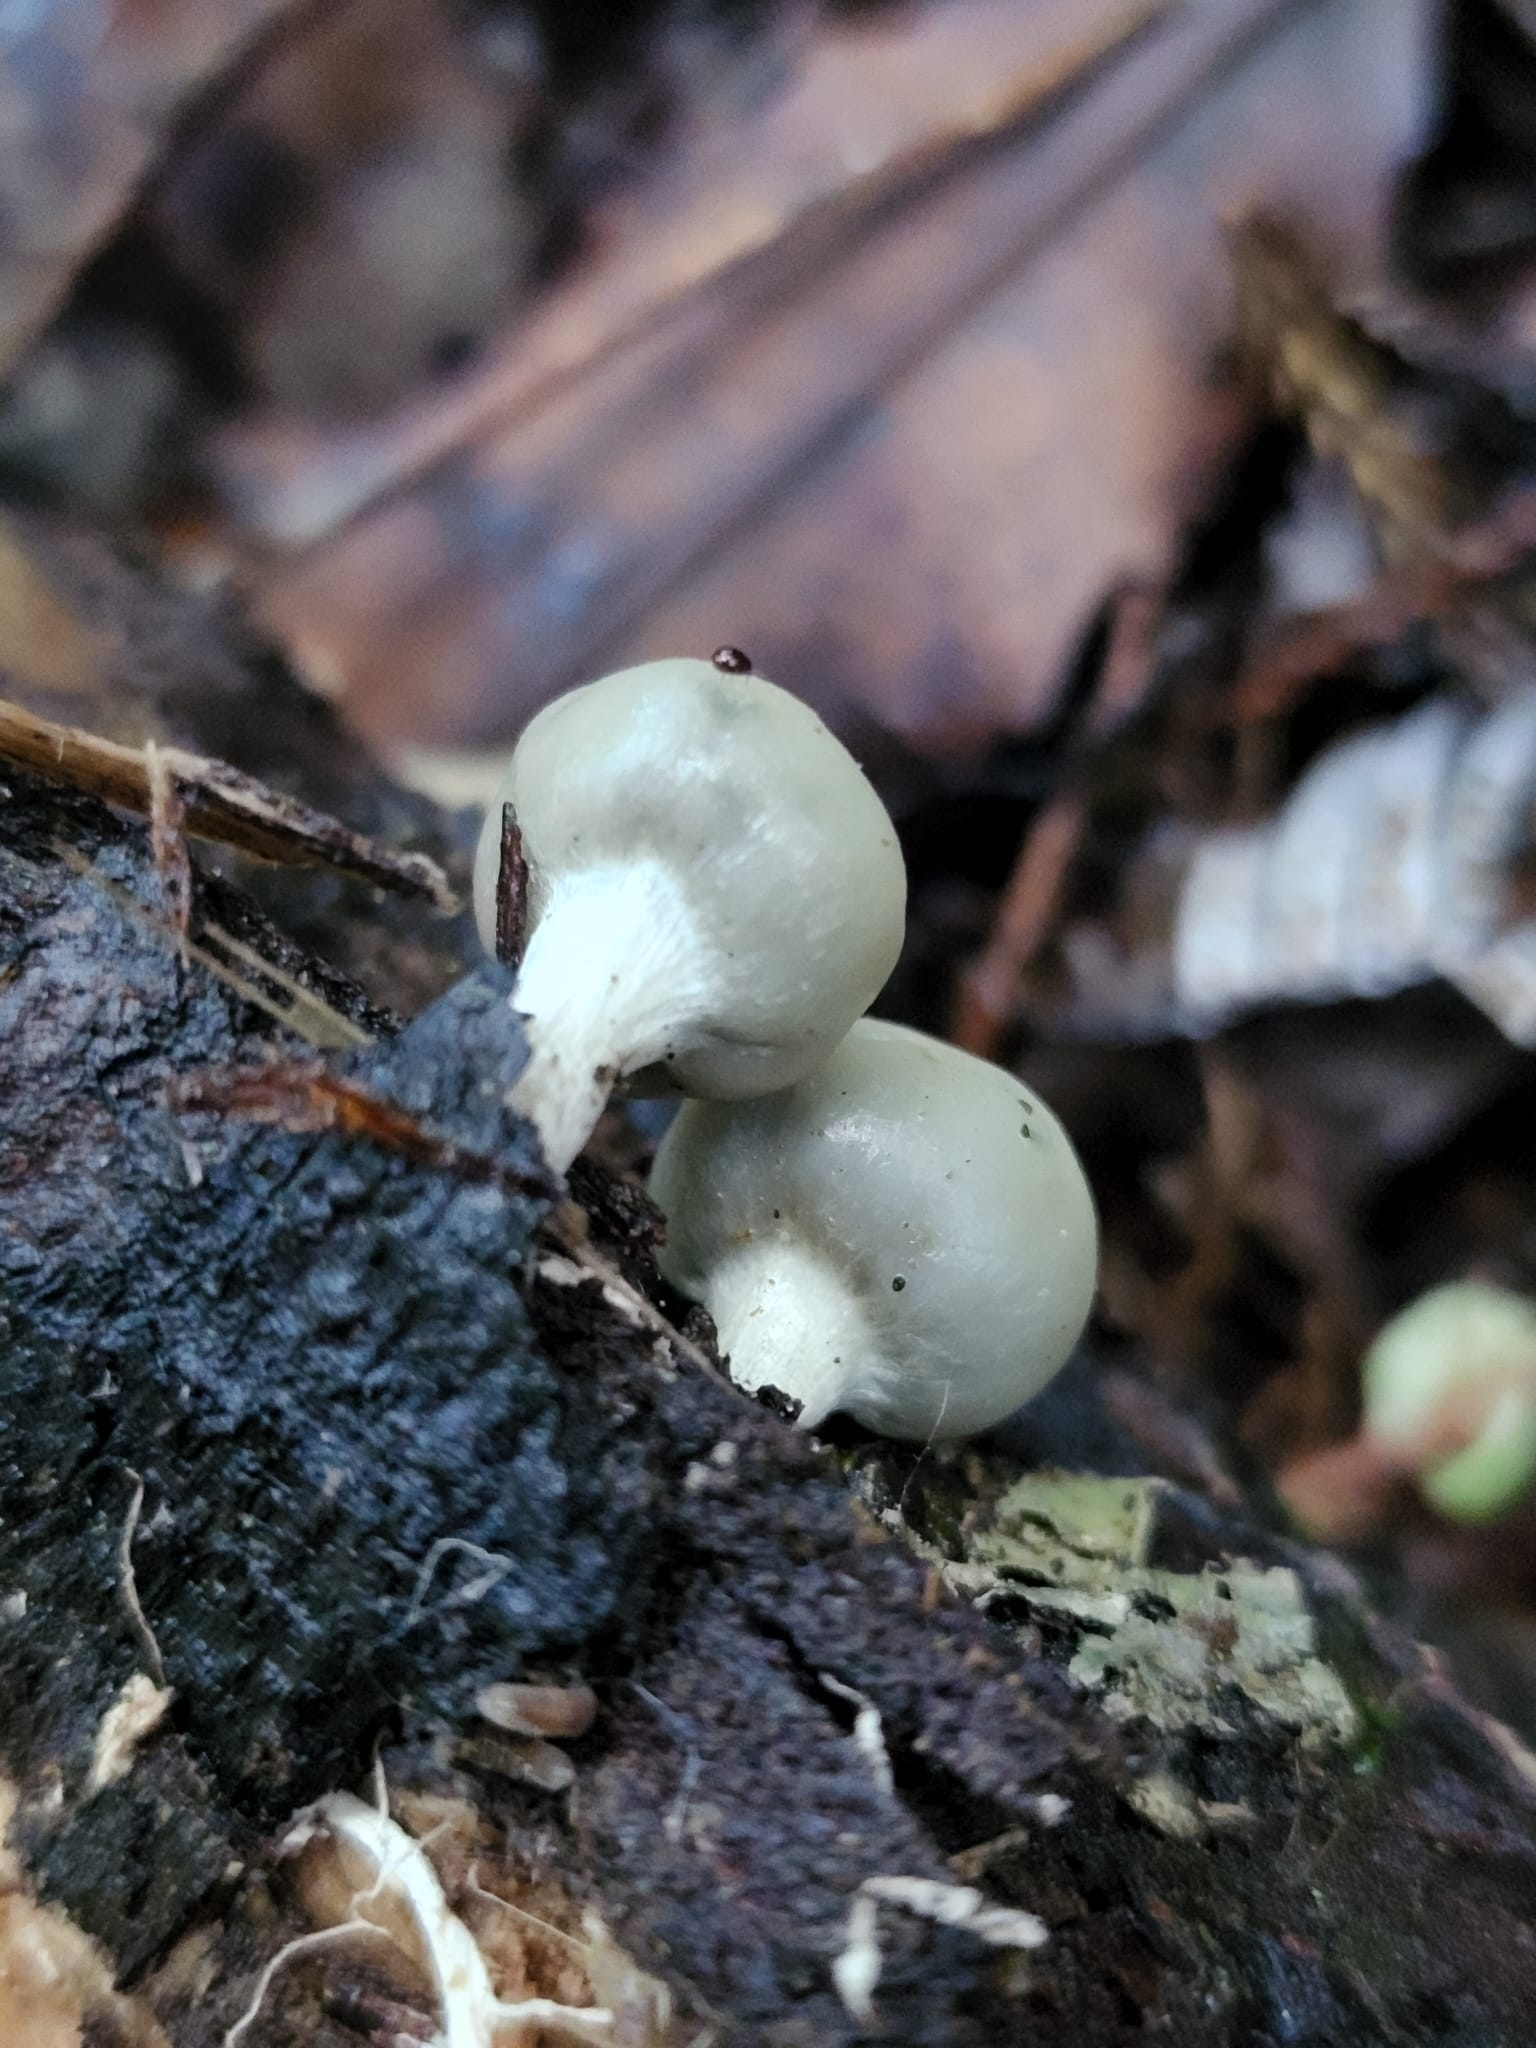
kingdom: Fungi
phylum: Basidiomycota
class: Agaricomycetes
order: Agaricales
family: Hymenogastraceae
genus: Psilocybe
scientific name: Psilocybe weraroa
